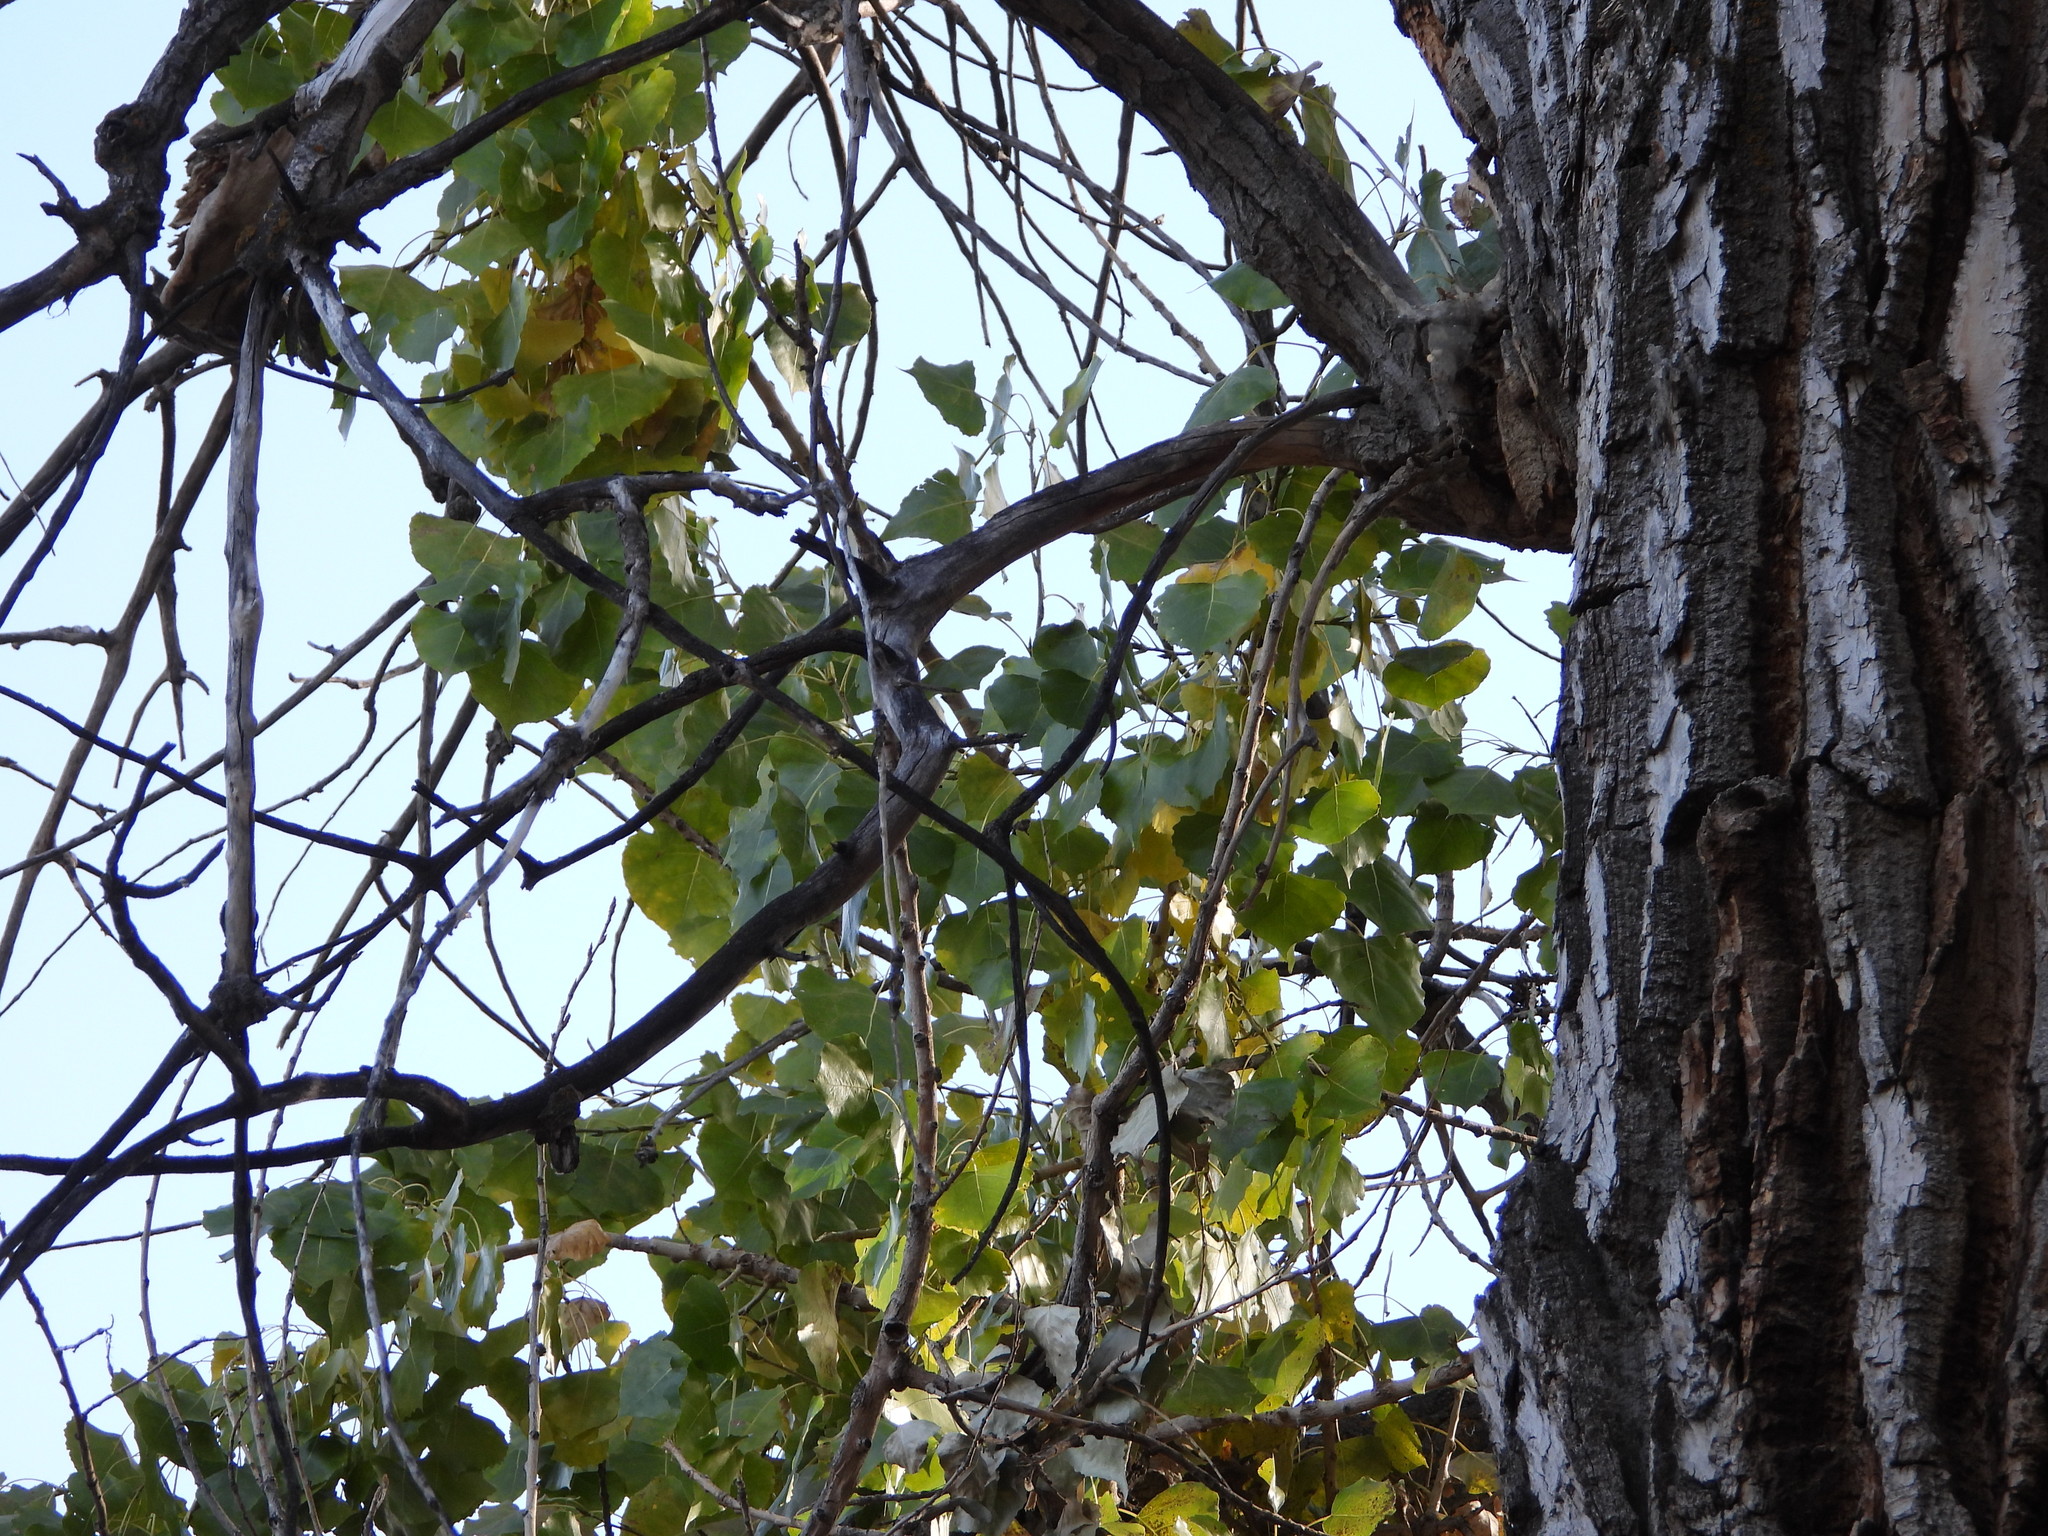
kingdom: Plantae
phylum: Tracheophyta
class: Magnoliopsida
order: Malpighiales
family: Salicaceae
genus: Populus
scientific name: Populus deltoides
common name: Eastern cottonwood
